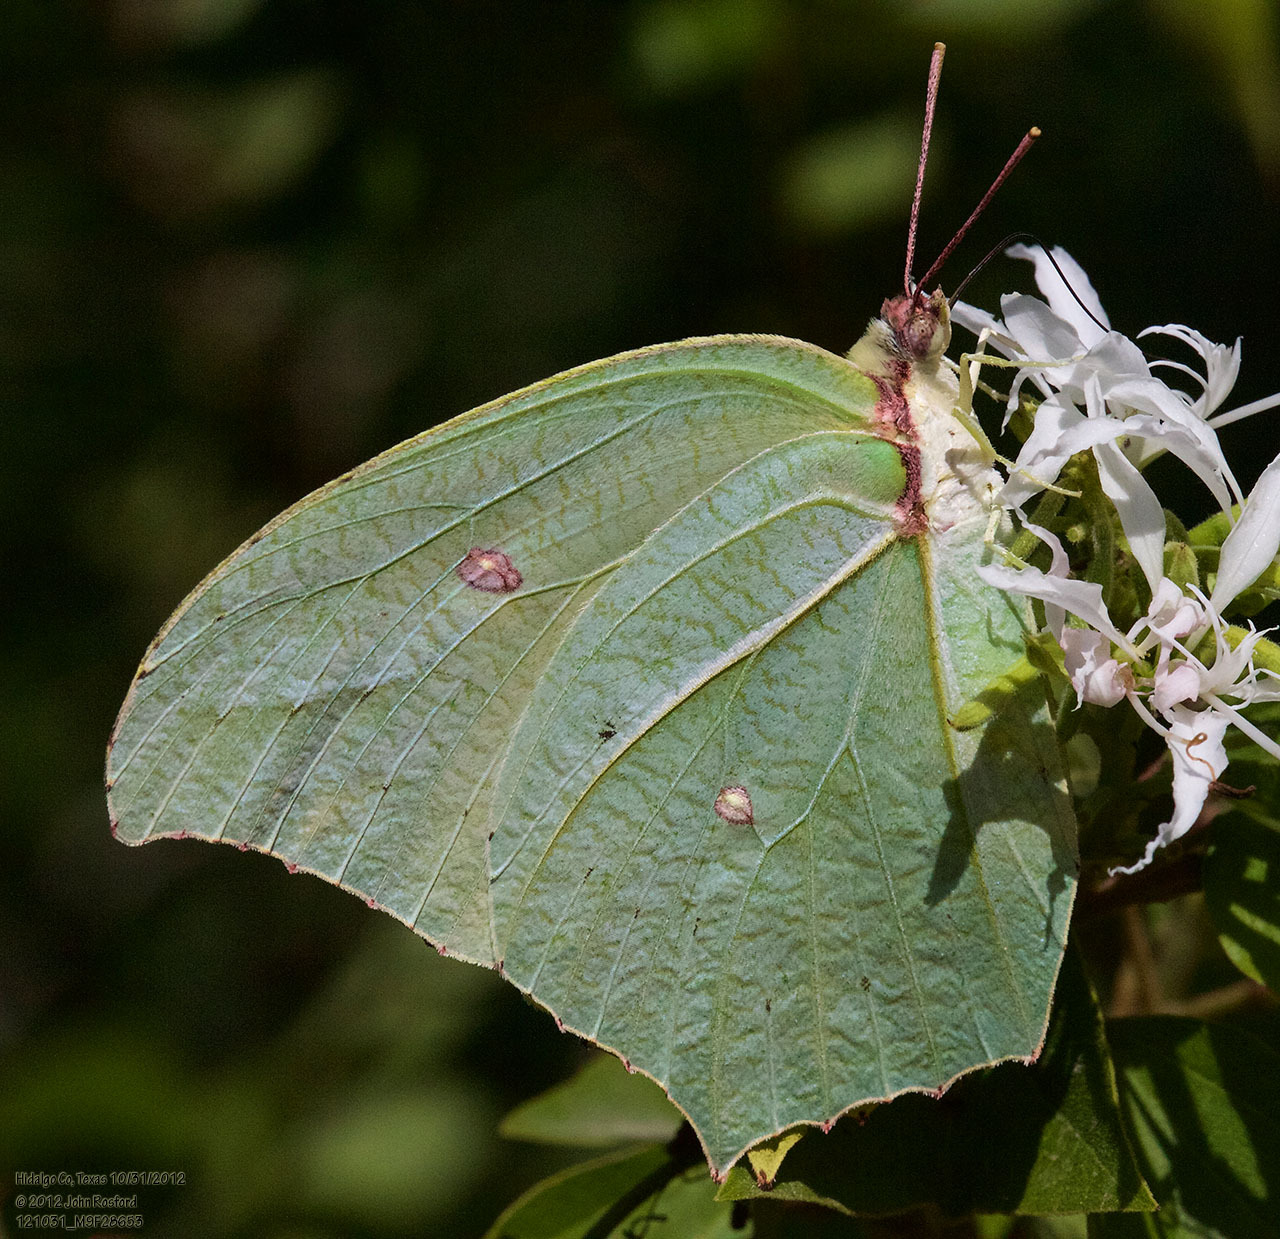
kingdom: Animalia
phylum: Arthropoda
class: Insecta
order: Lepidoptera
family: Pieridae
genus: Anteos
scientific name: Anteos maerula
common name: Angled sulphur
